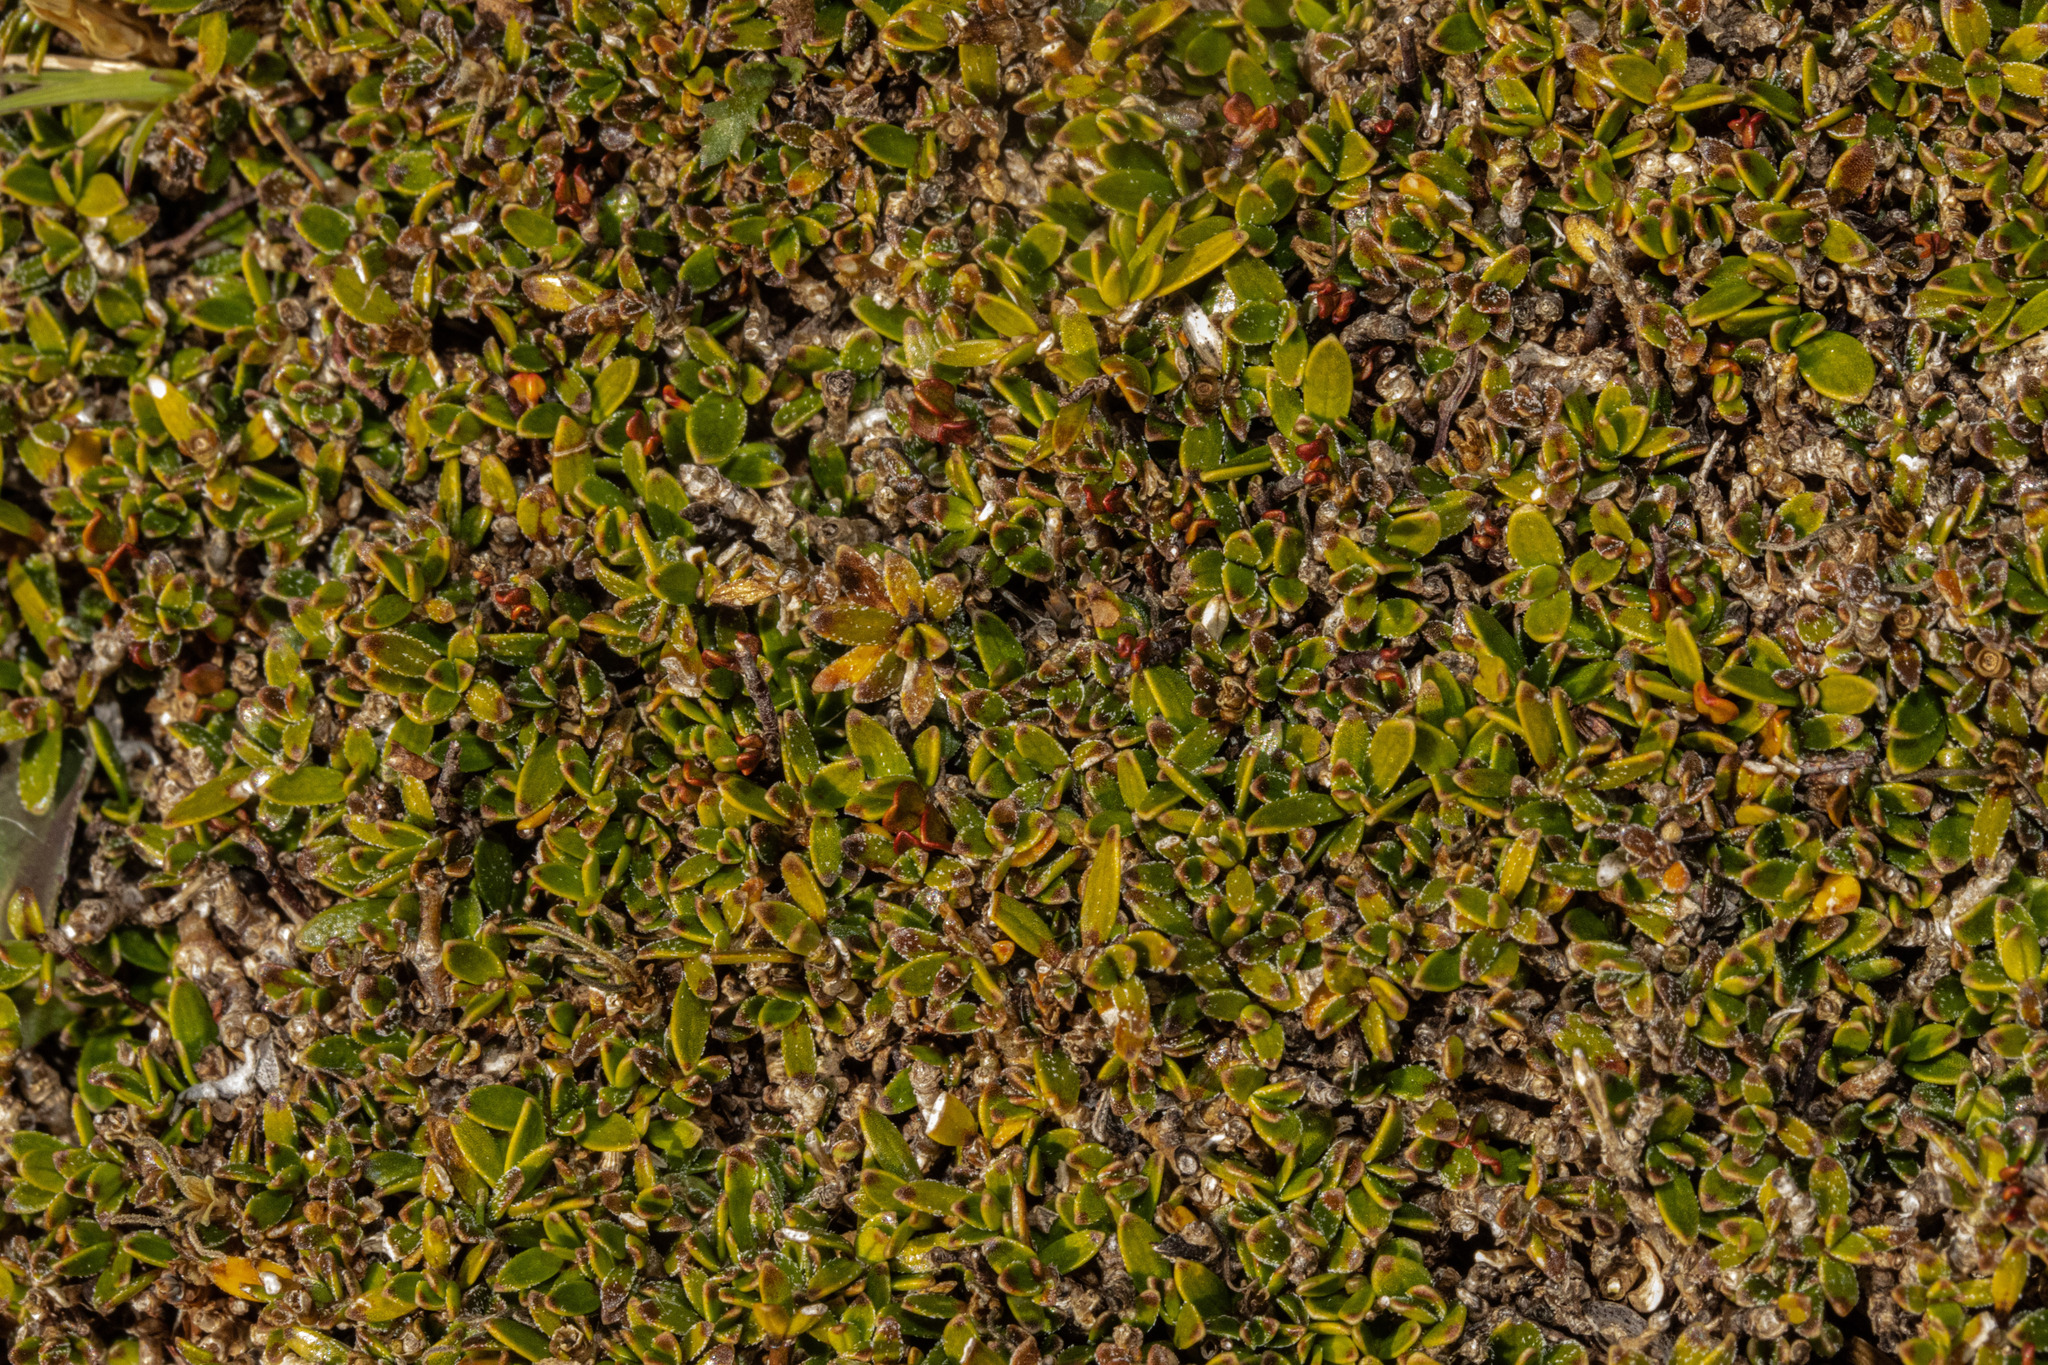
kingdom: Plantae
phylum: Tracheophyta
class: Magnoliopsida
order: Gentianales
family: Rubiaceae
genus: Coprosma
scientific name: Coprosma petriei
